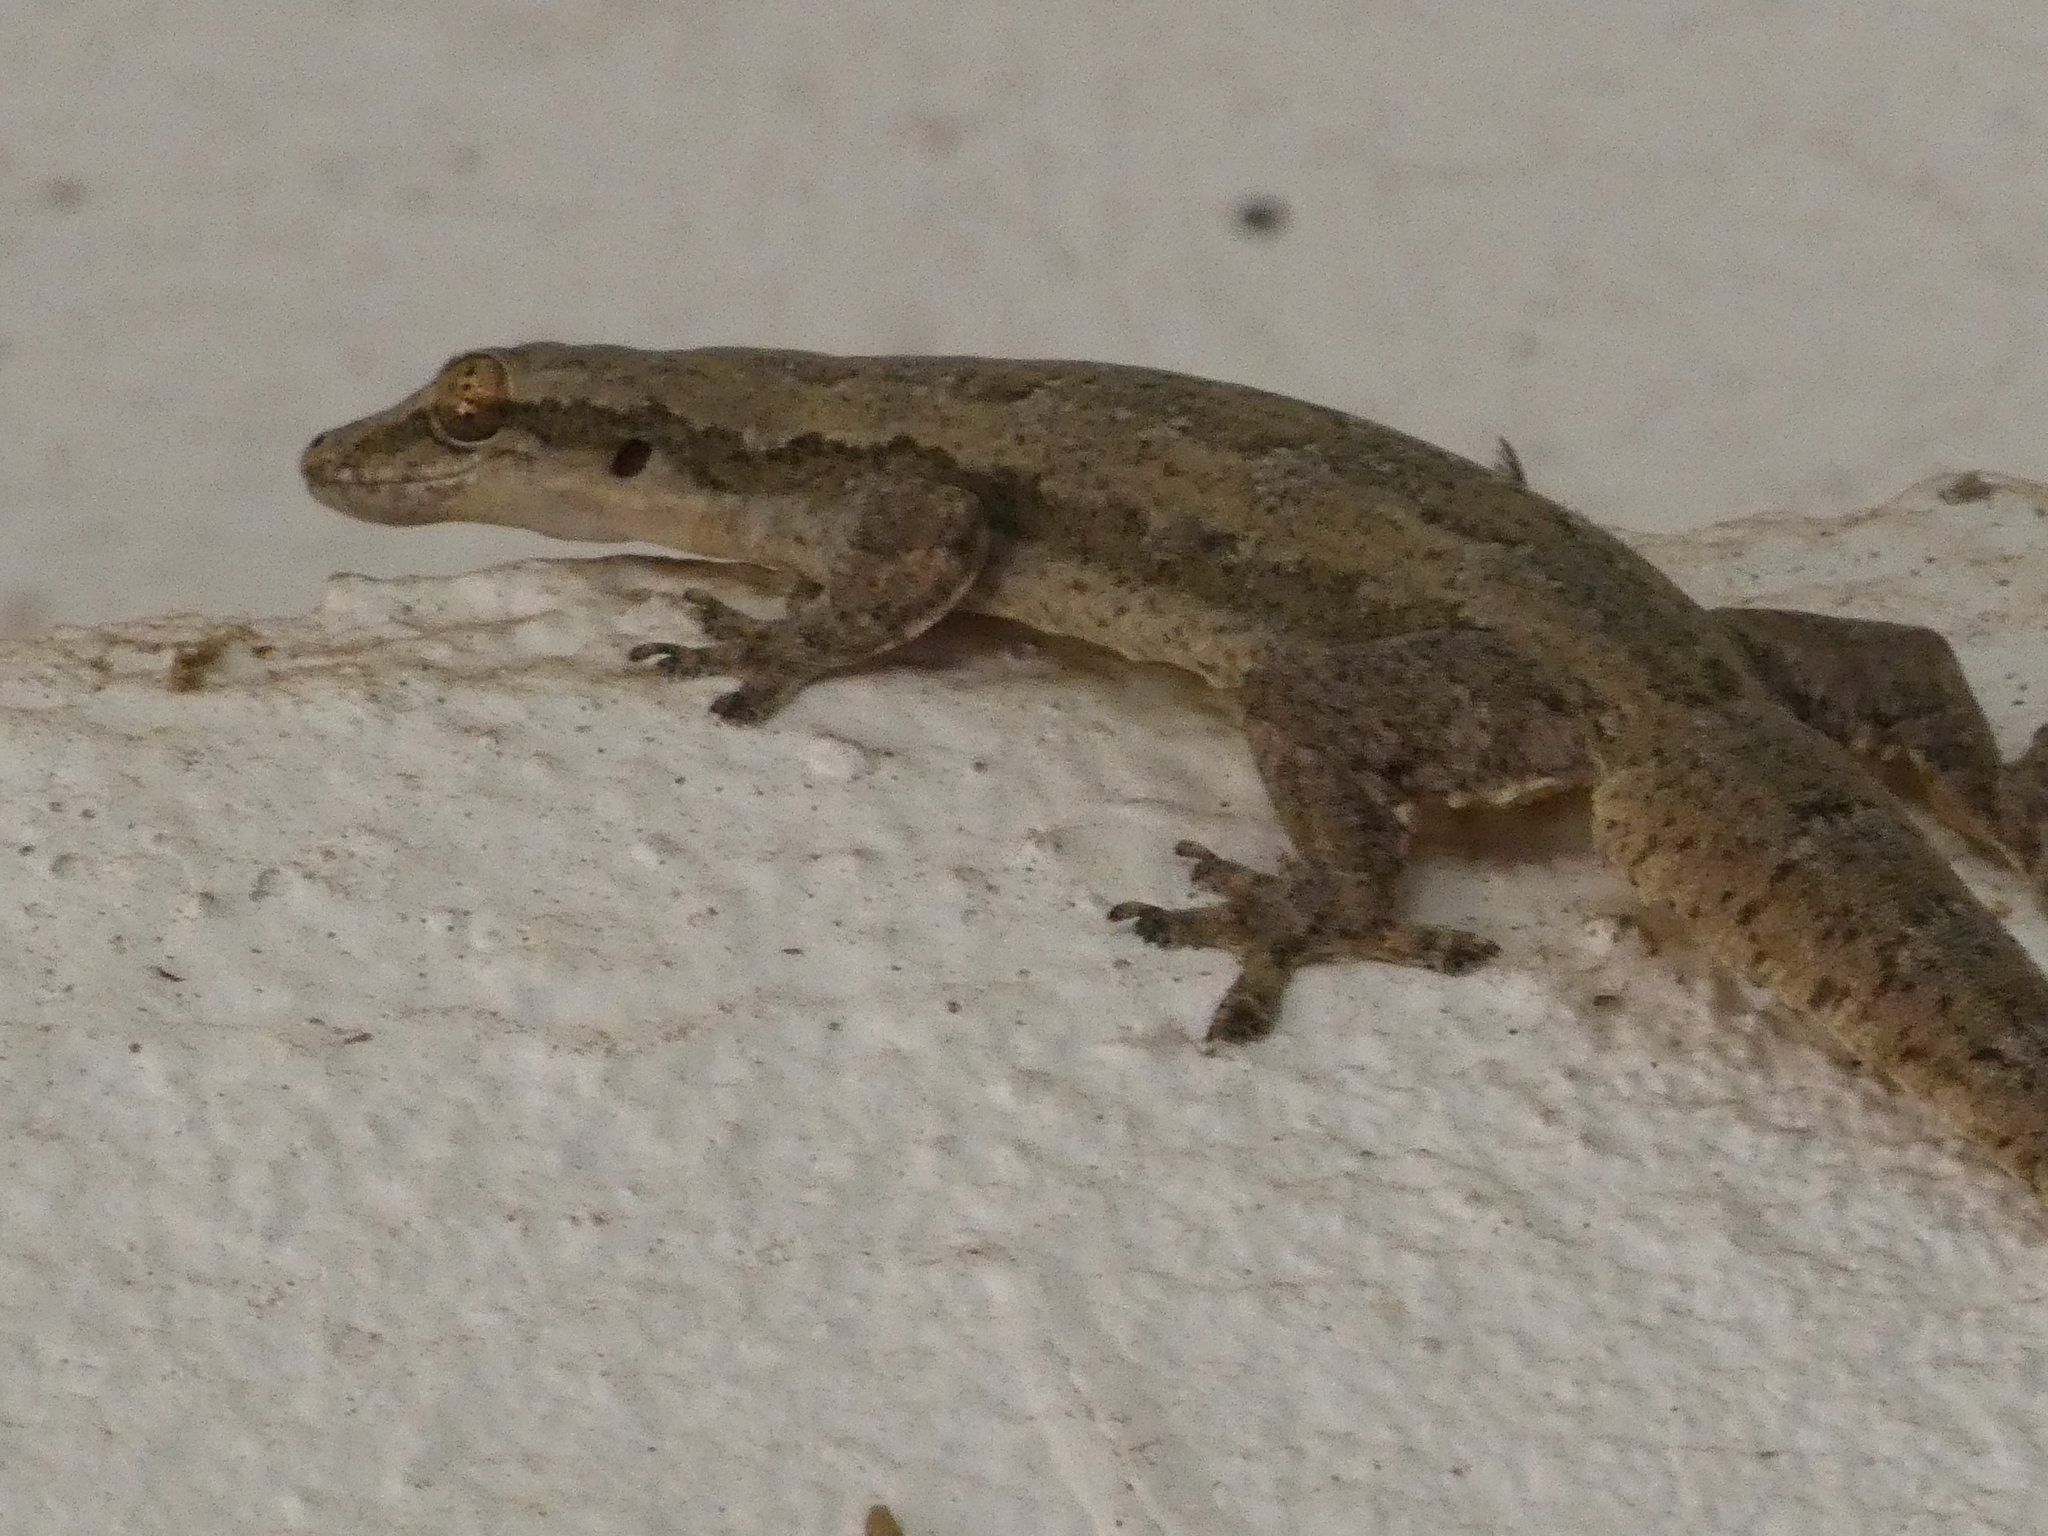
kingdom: Animalia
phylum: Chordata
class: Squamata
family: Gekkonidae
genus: Hemidactylus
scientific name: Hemidactylus platyurus
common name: Flat-tailed house gecko
